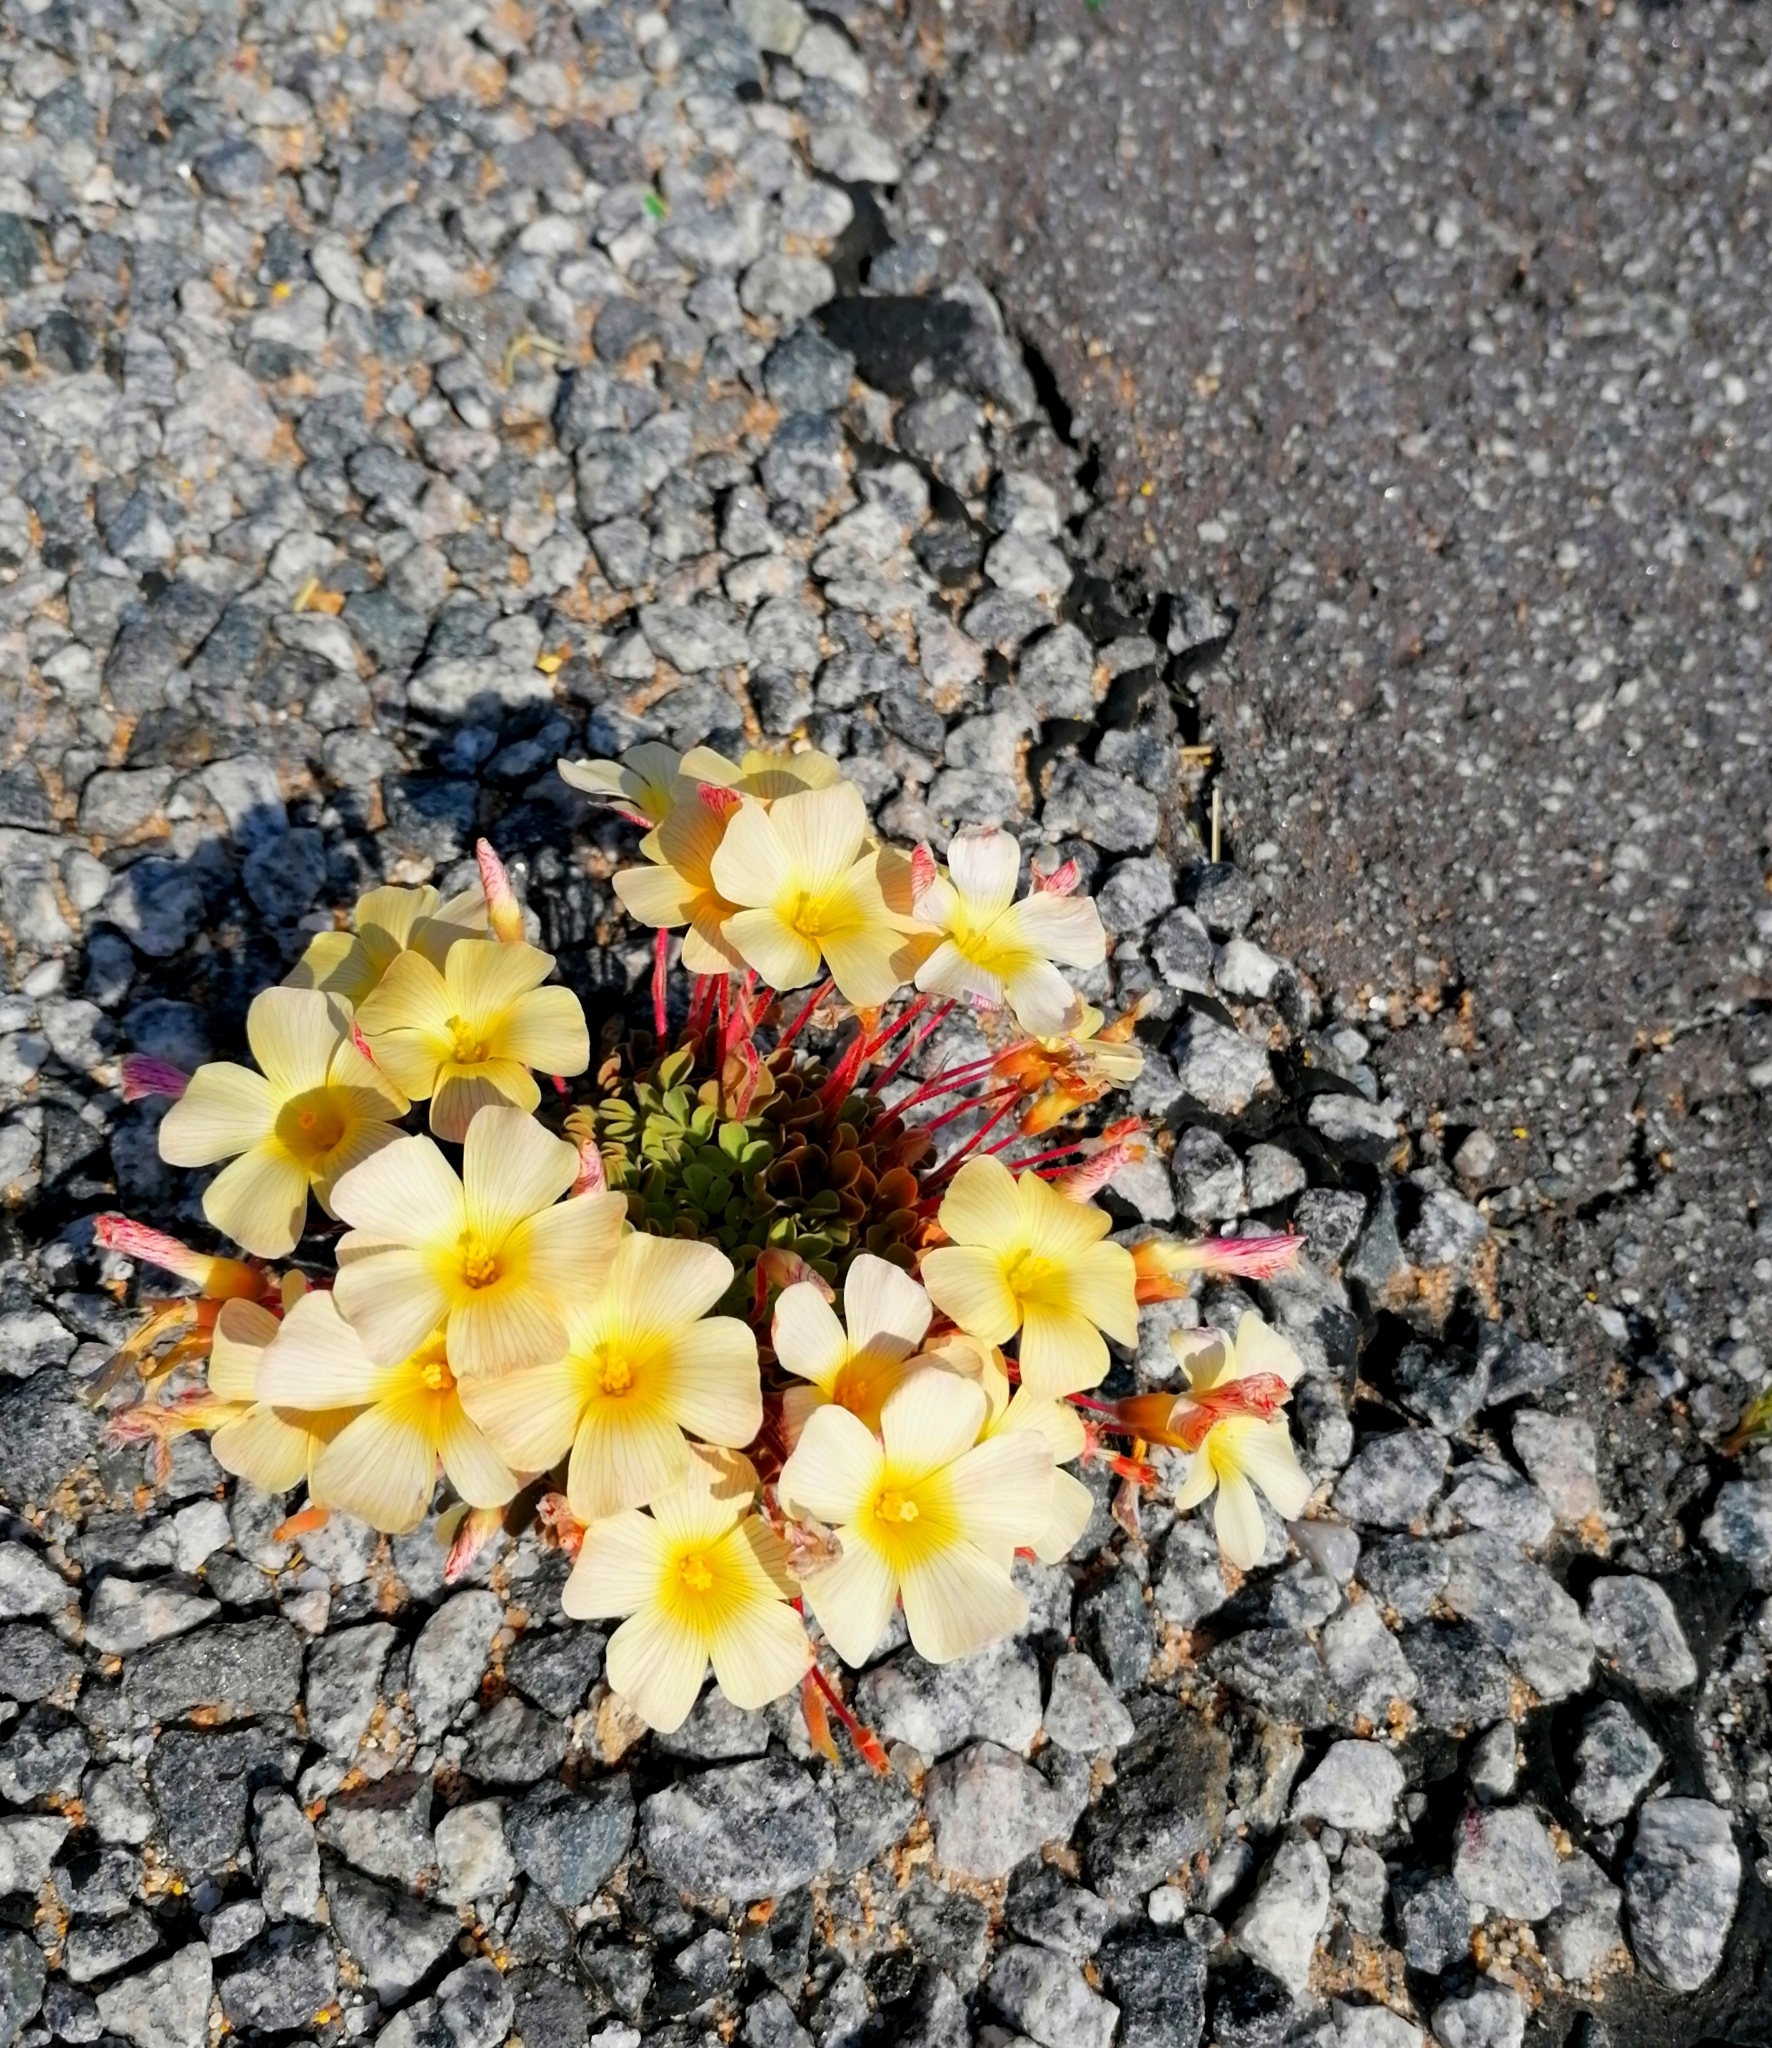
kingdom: Plantae
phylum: Tracheophyta
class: Magnoliopsida
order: Oxalidales
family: Oxalidaceae
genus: Oxalis
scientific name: Oxalis obtusa
